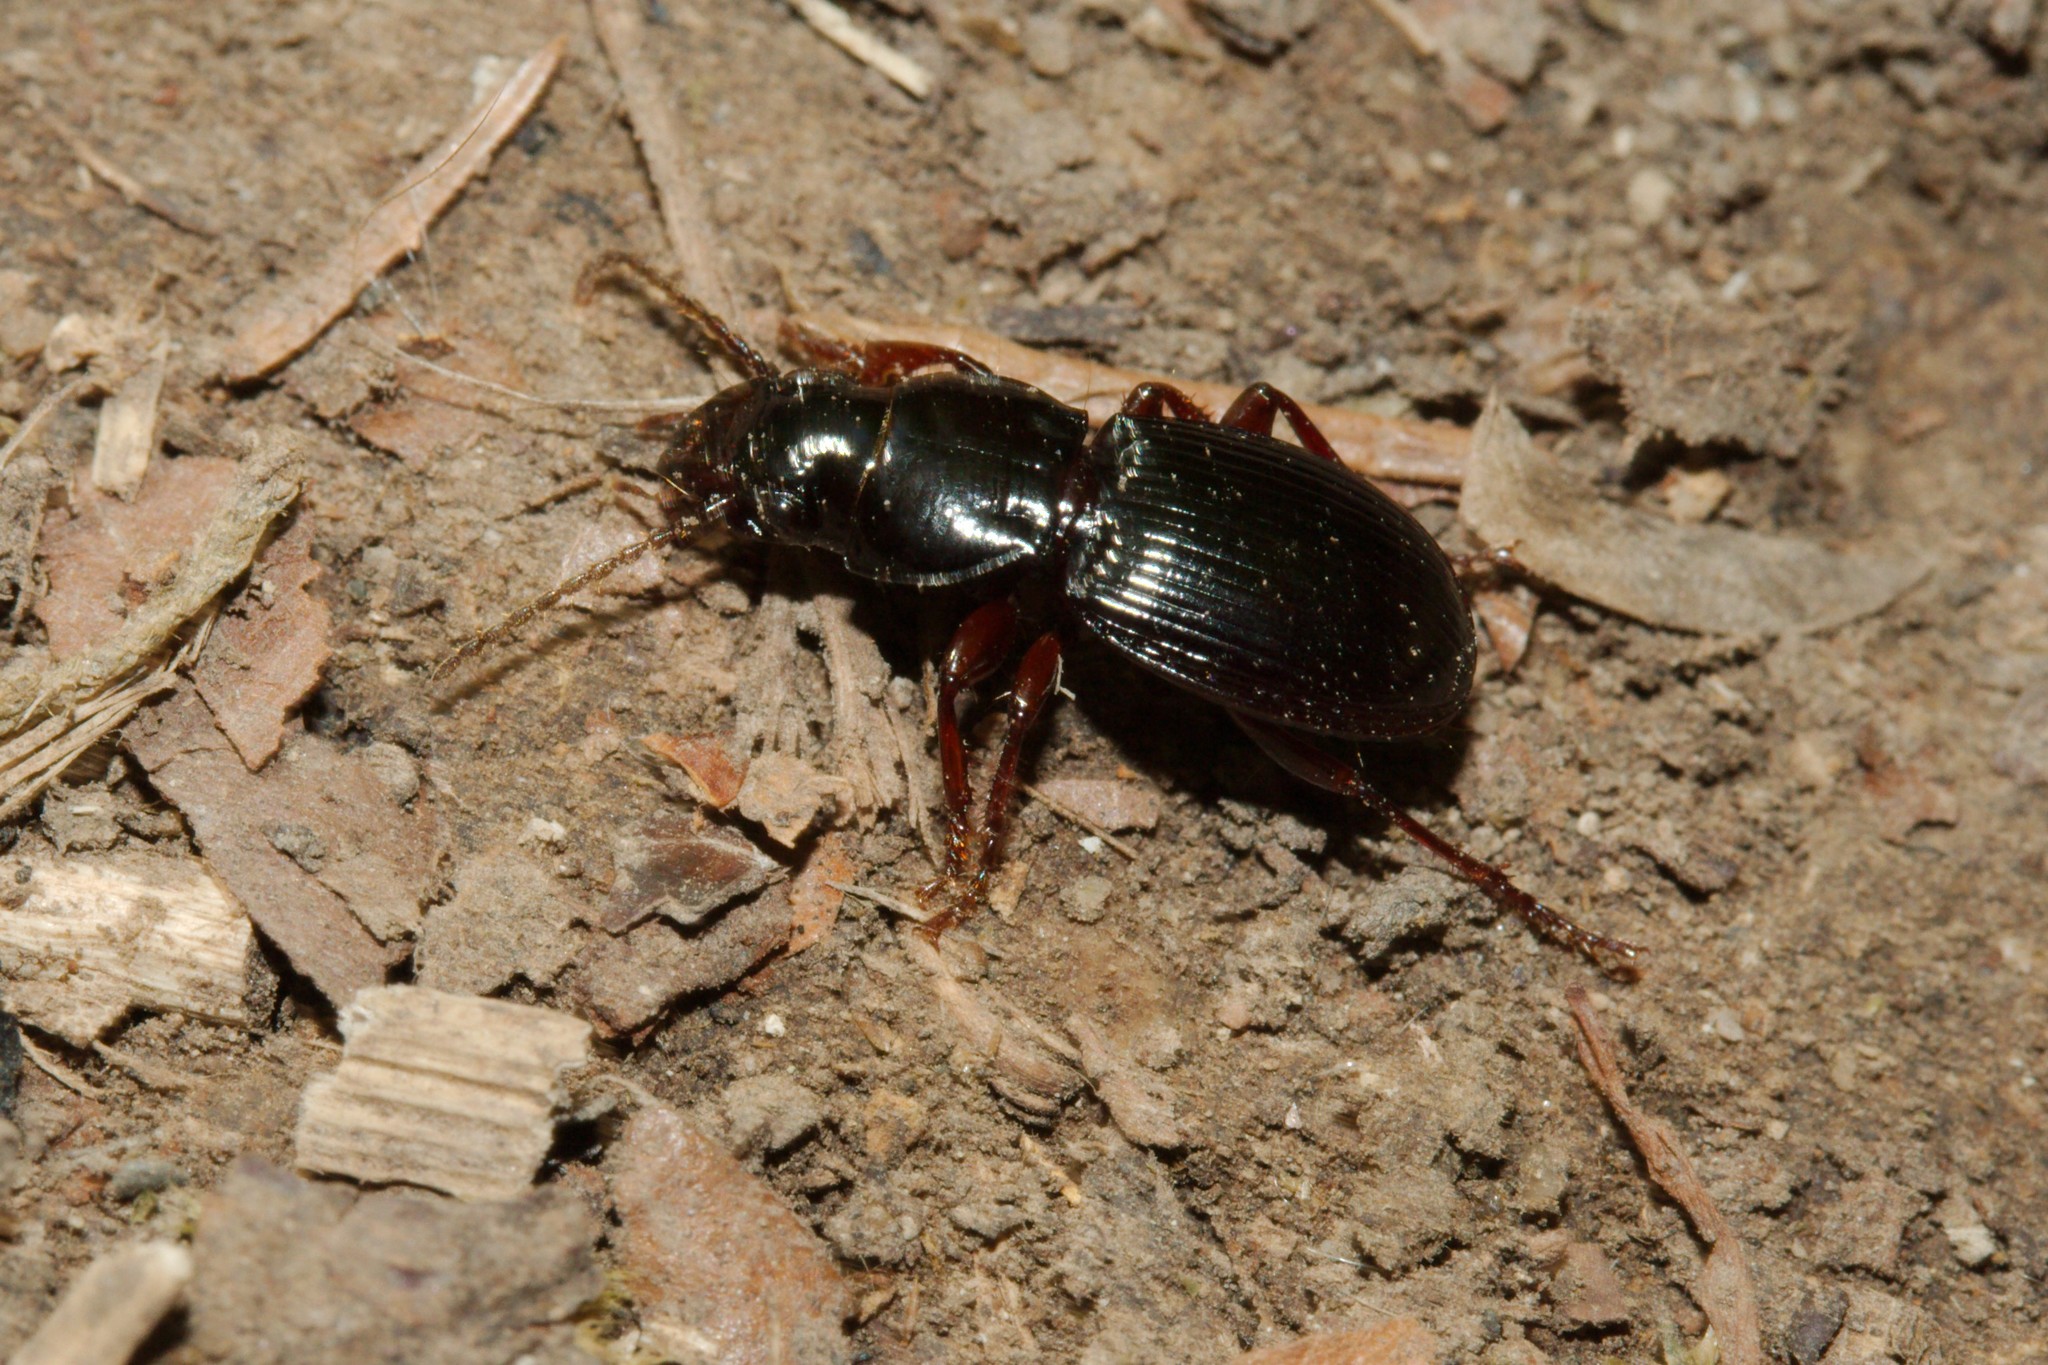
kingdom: Animalia
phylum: Arthropoda
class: Insecta
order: Coleoptera
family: Carabidae
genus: Molops
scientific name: Molops piceus
